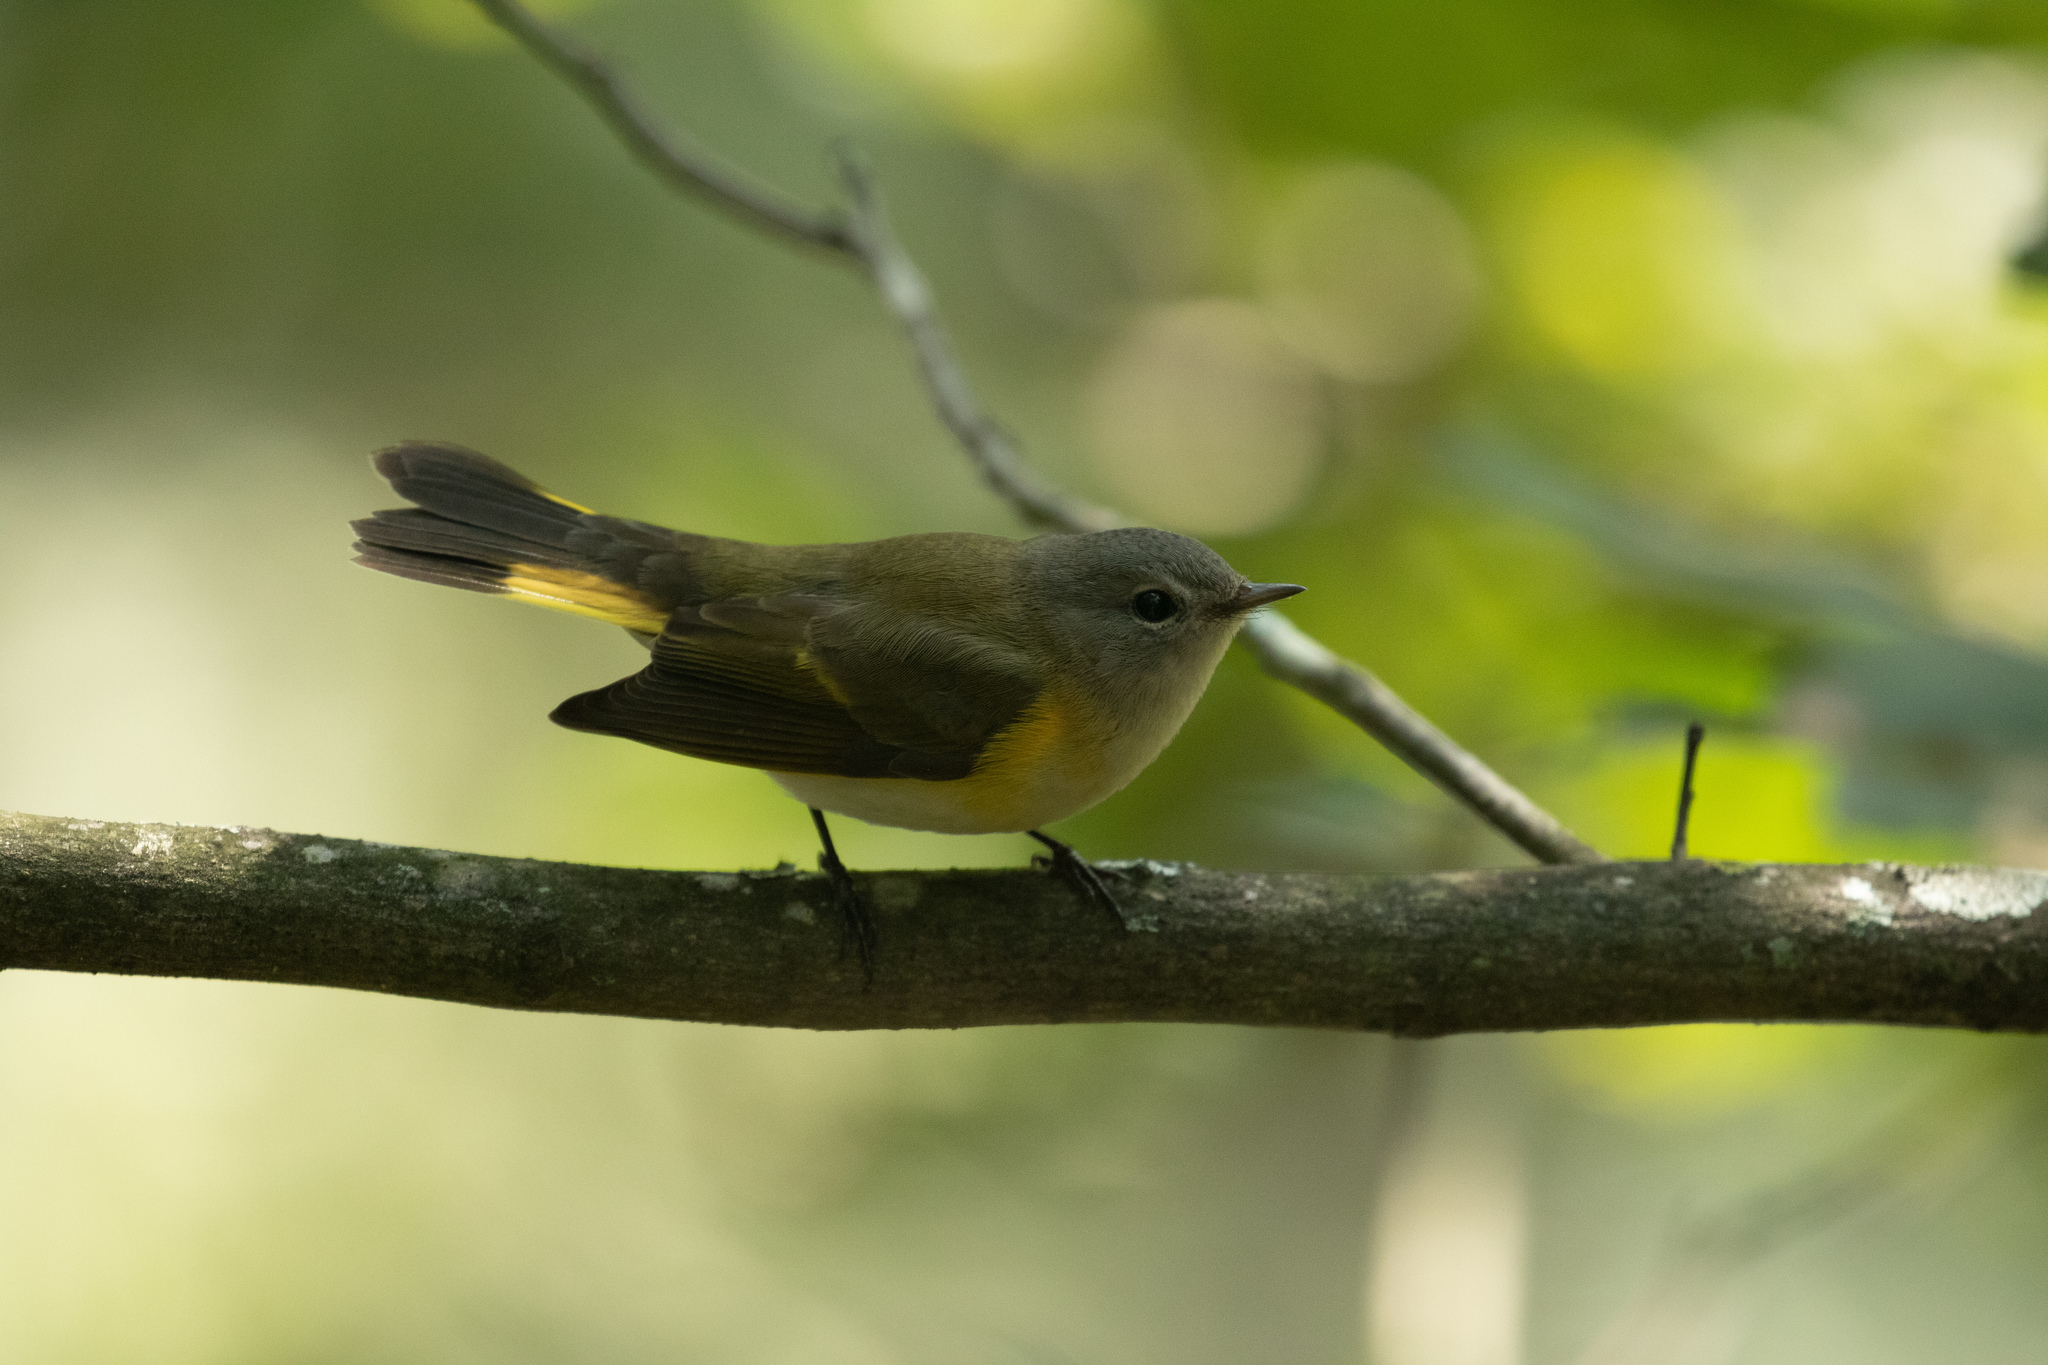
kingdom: Animalia
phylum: Chordata
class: Aves
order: Passeriformes
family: Parulidae
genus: Setophaga
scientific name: Setophaga ruticilla
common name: American redstart
